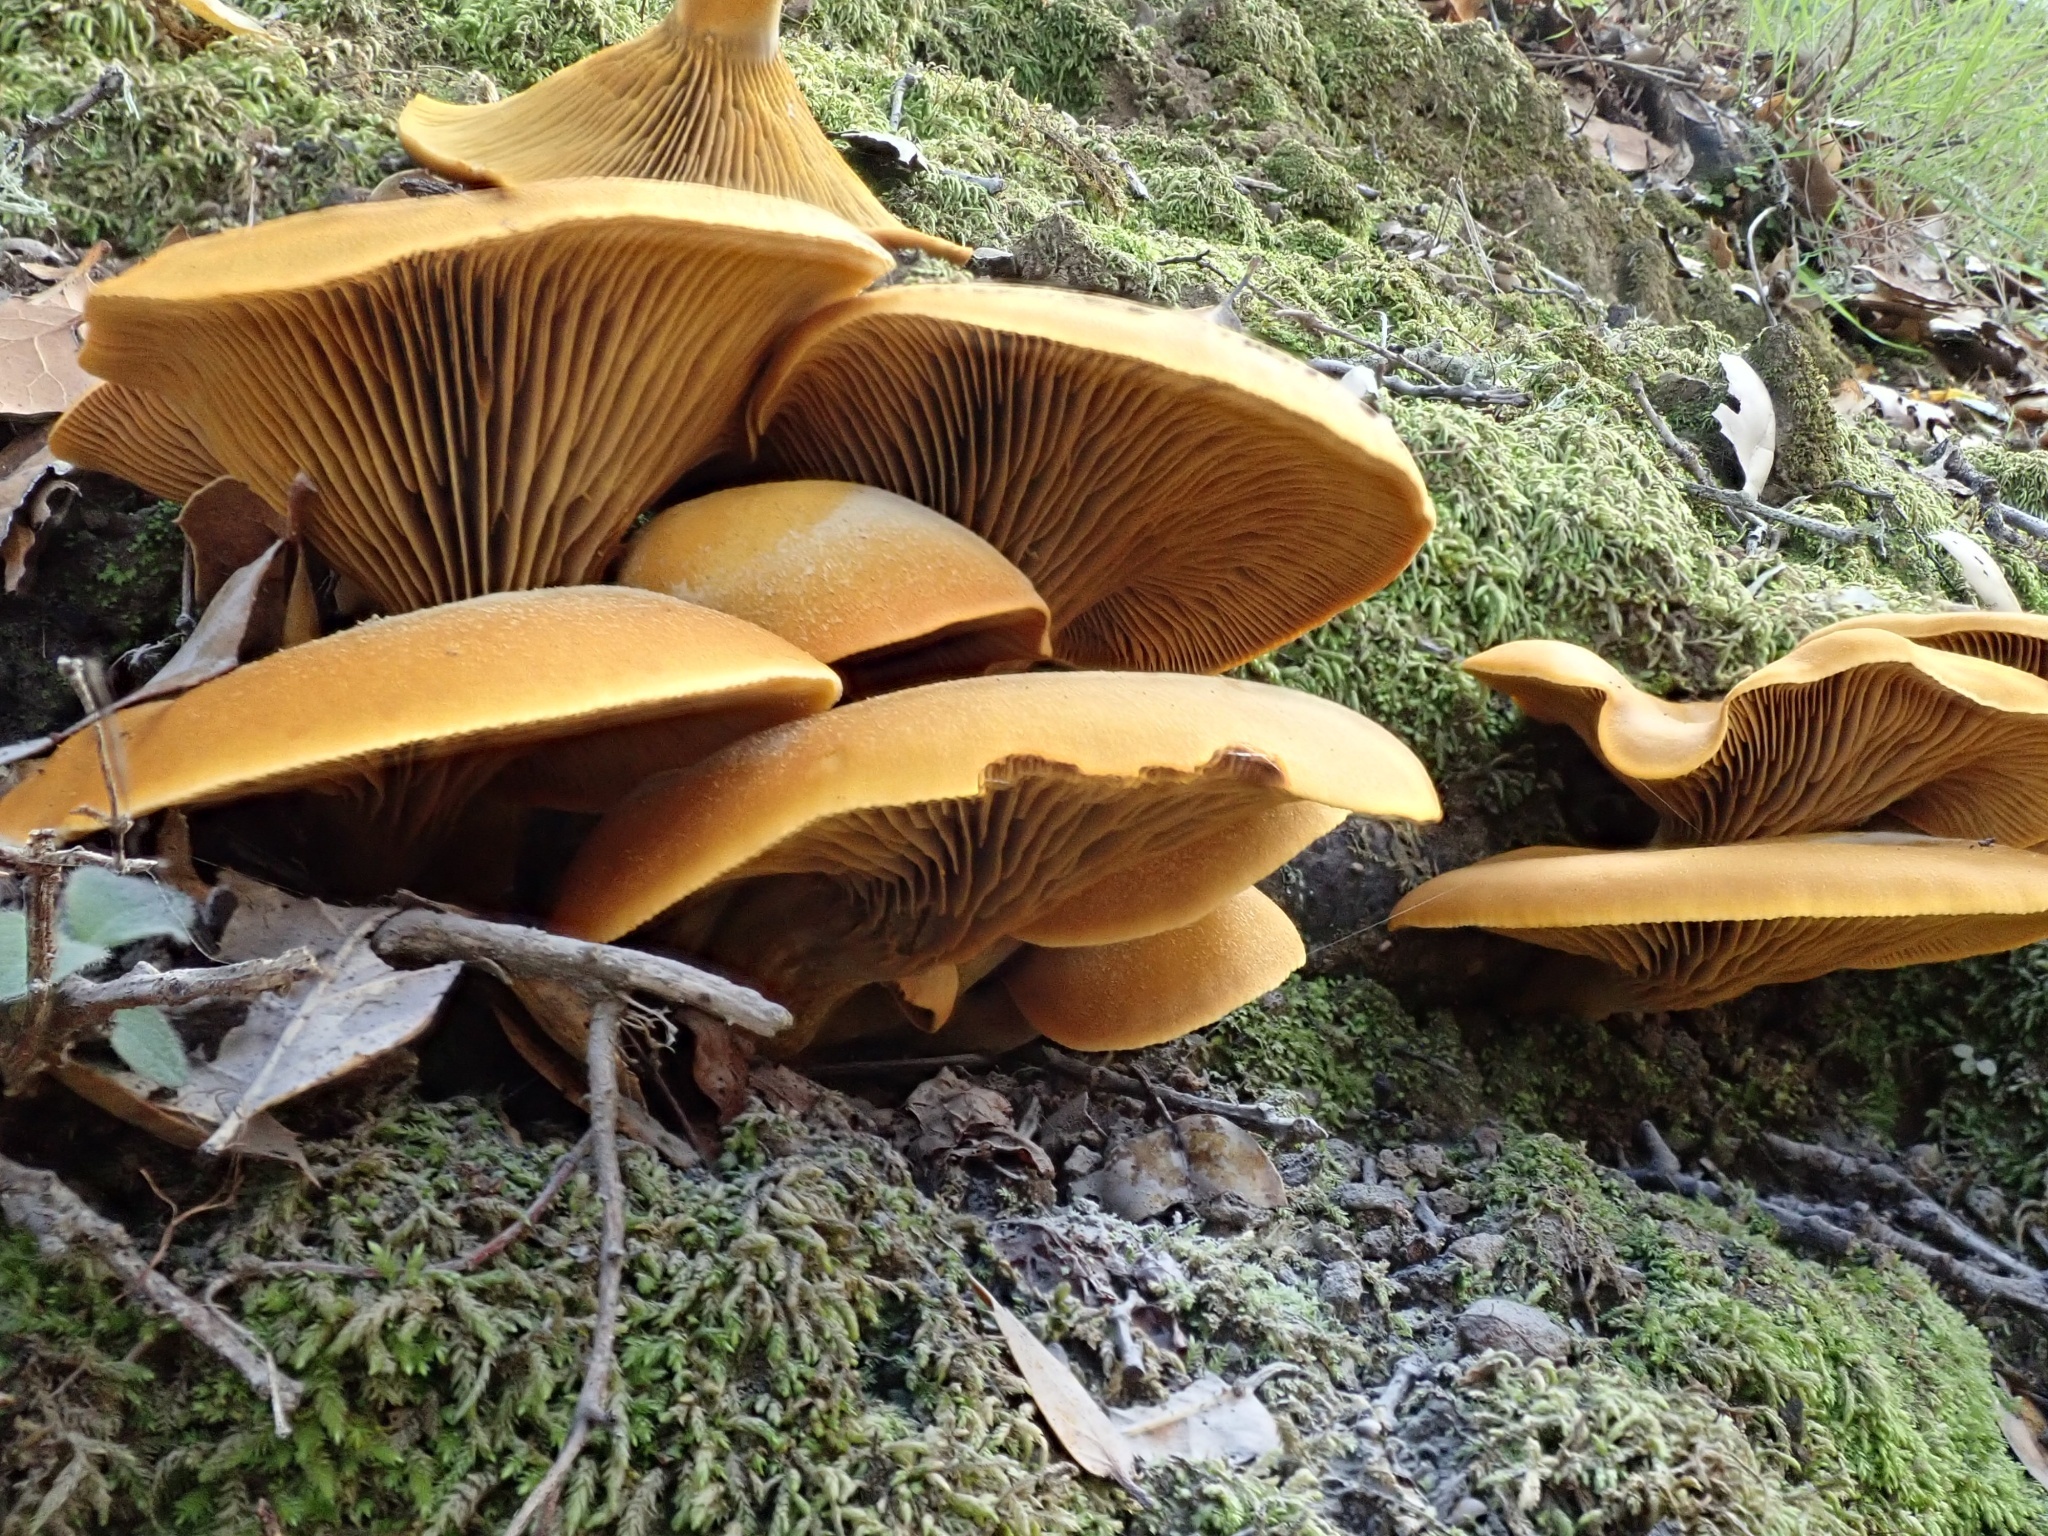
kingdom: Fungi
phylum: Basidiomycota
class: Agaricomycetes
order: Agaricales
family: Omphalotaceae
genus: Omphalotus
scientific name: Omphalotus olivascens
